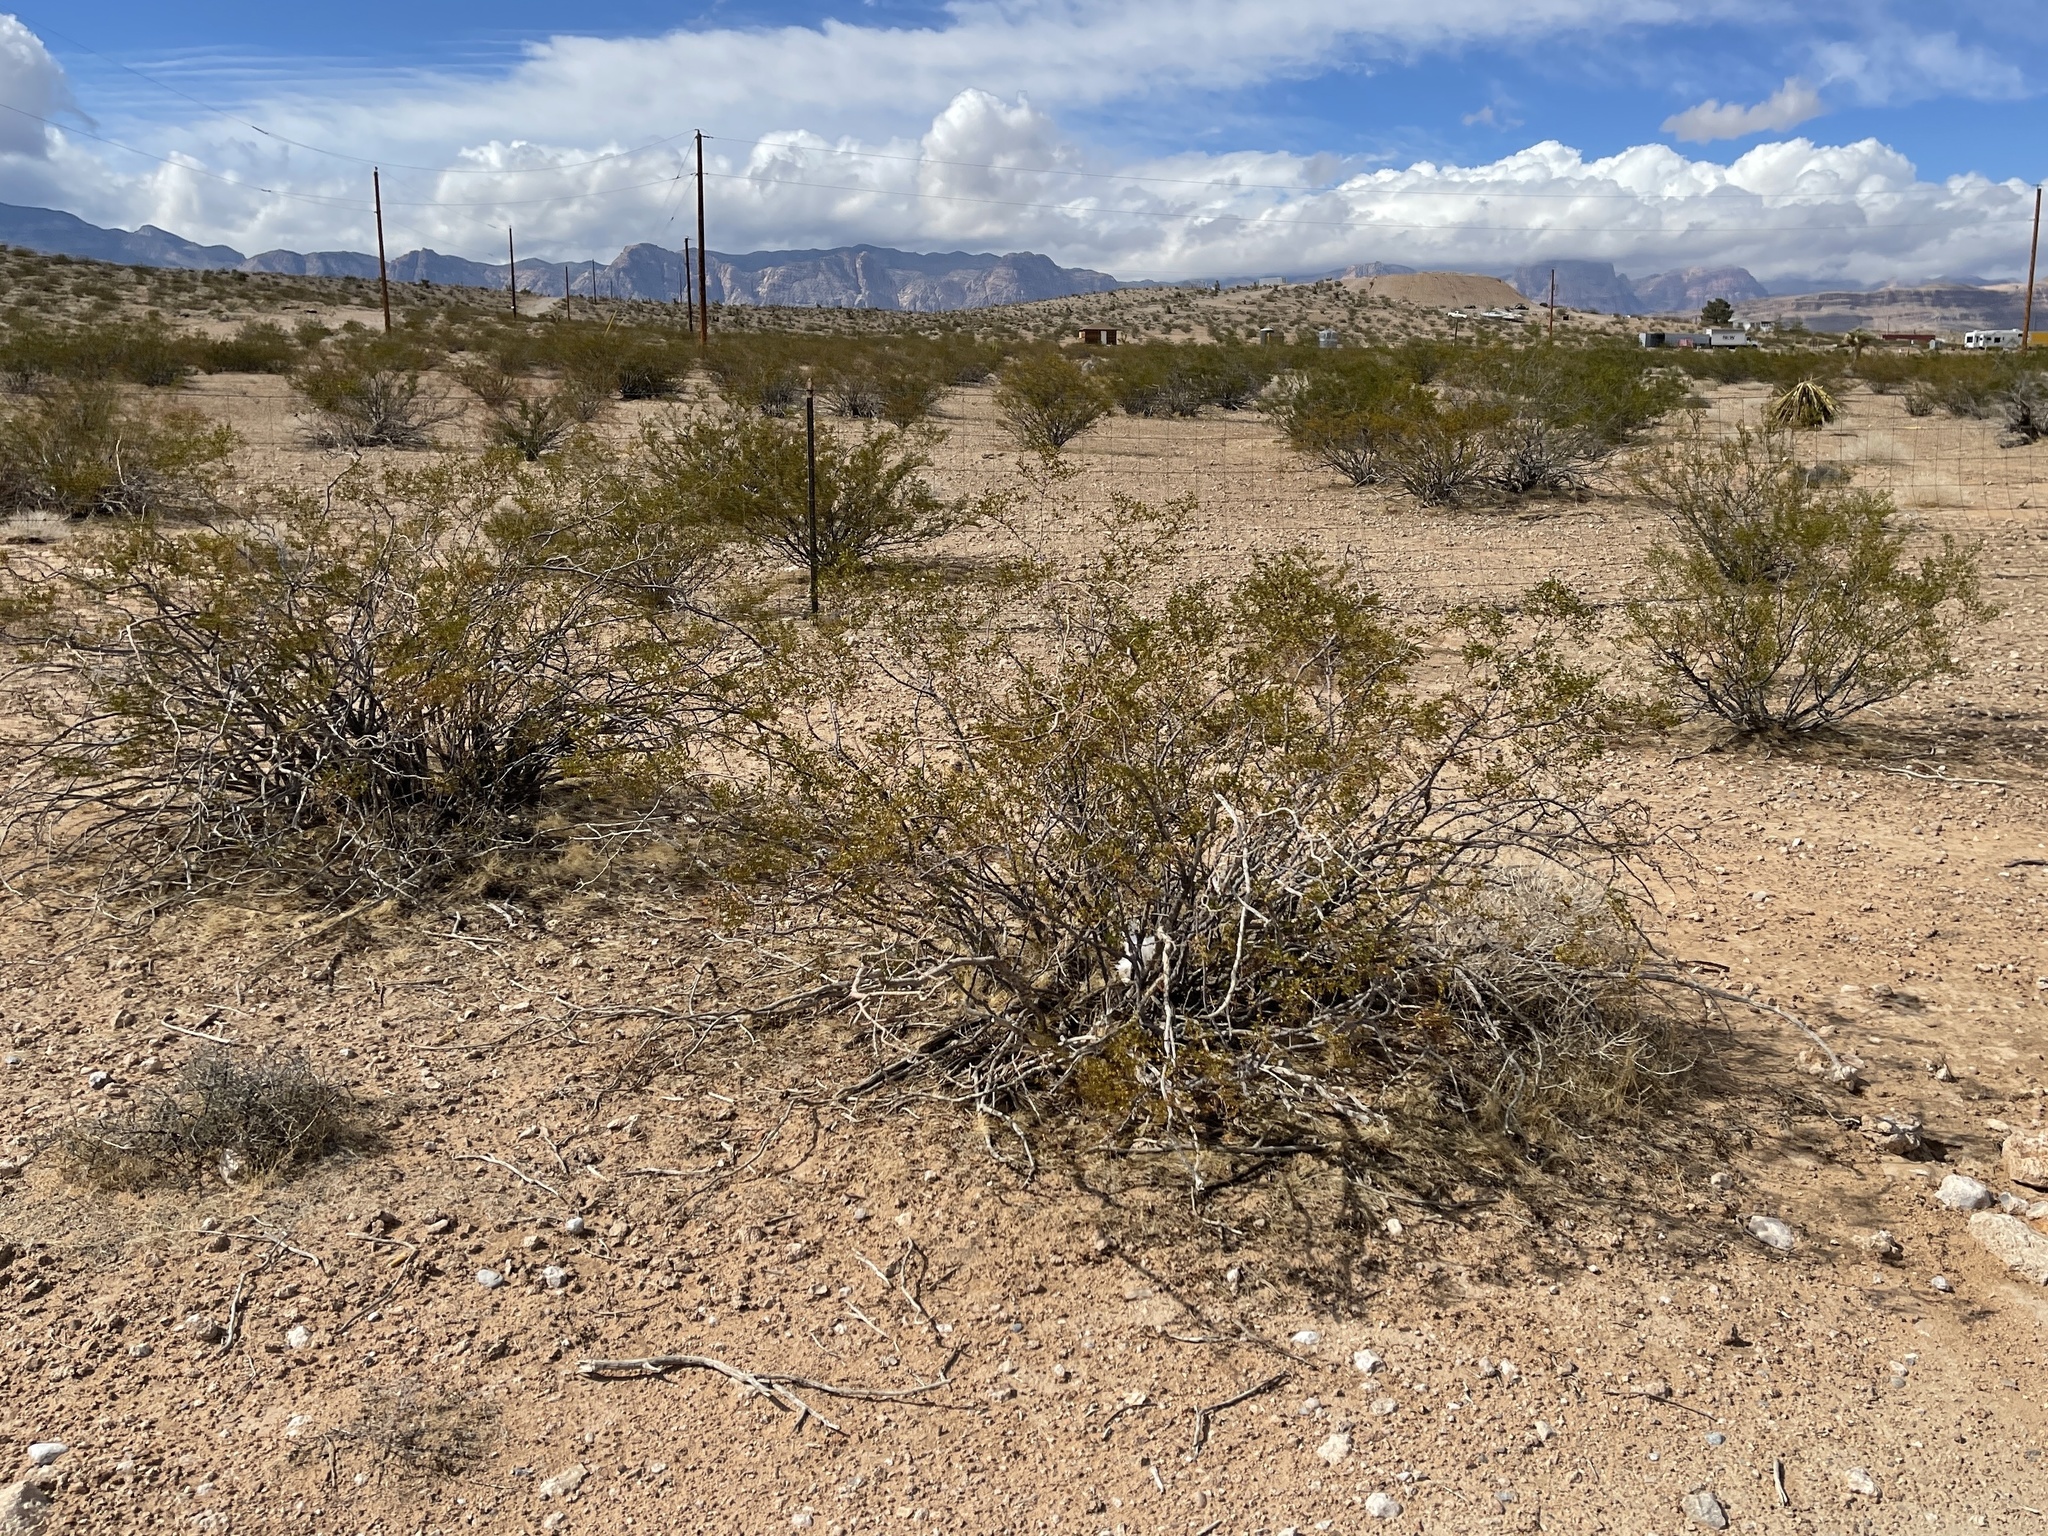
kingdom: Plantae
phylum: Tracheophyta
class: Magnoliopsida
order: Zygophyllales
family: Zygophyllaceae
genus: Larrea
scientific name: Larrea tridentata
